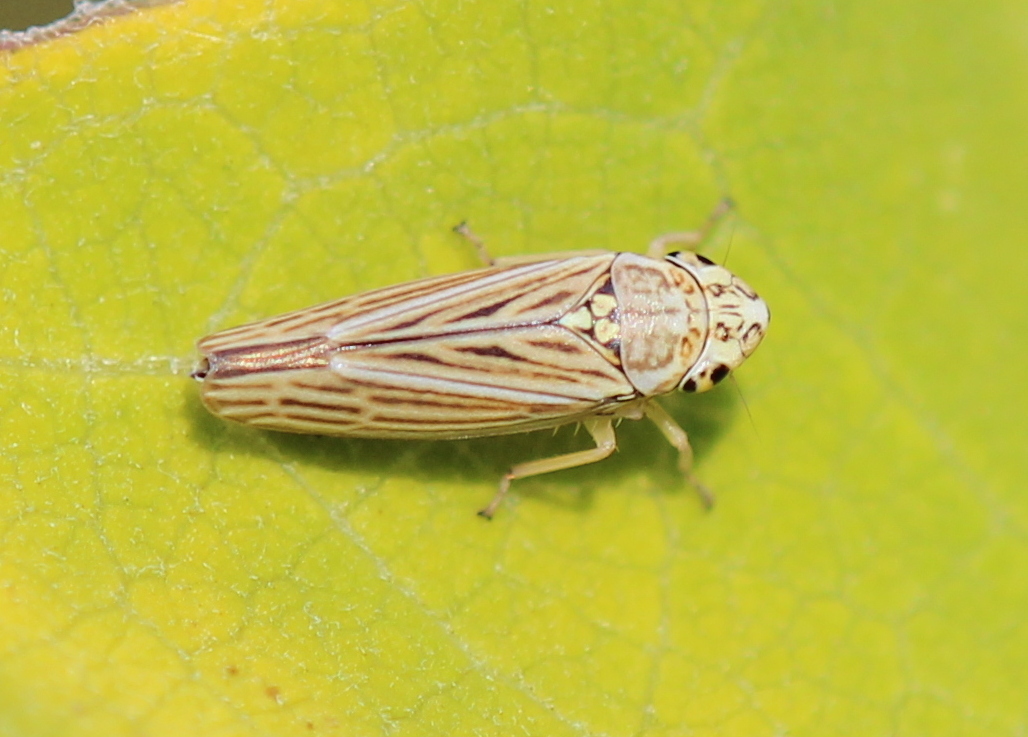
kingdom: Animalia
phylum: Arthropoda
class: Insecta
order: Hemiptera
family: Cicadellidae
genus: Neokolla
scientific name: Neokolla hieroglyphica
